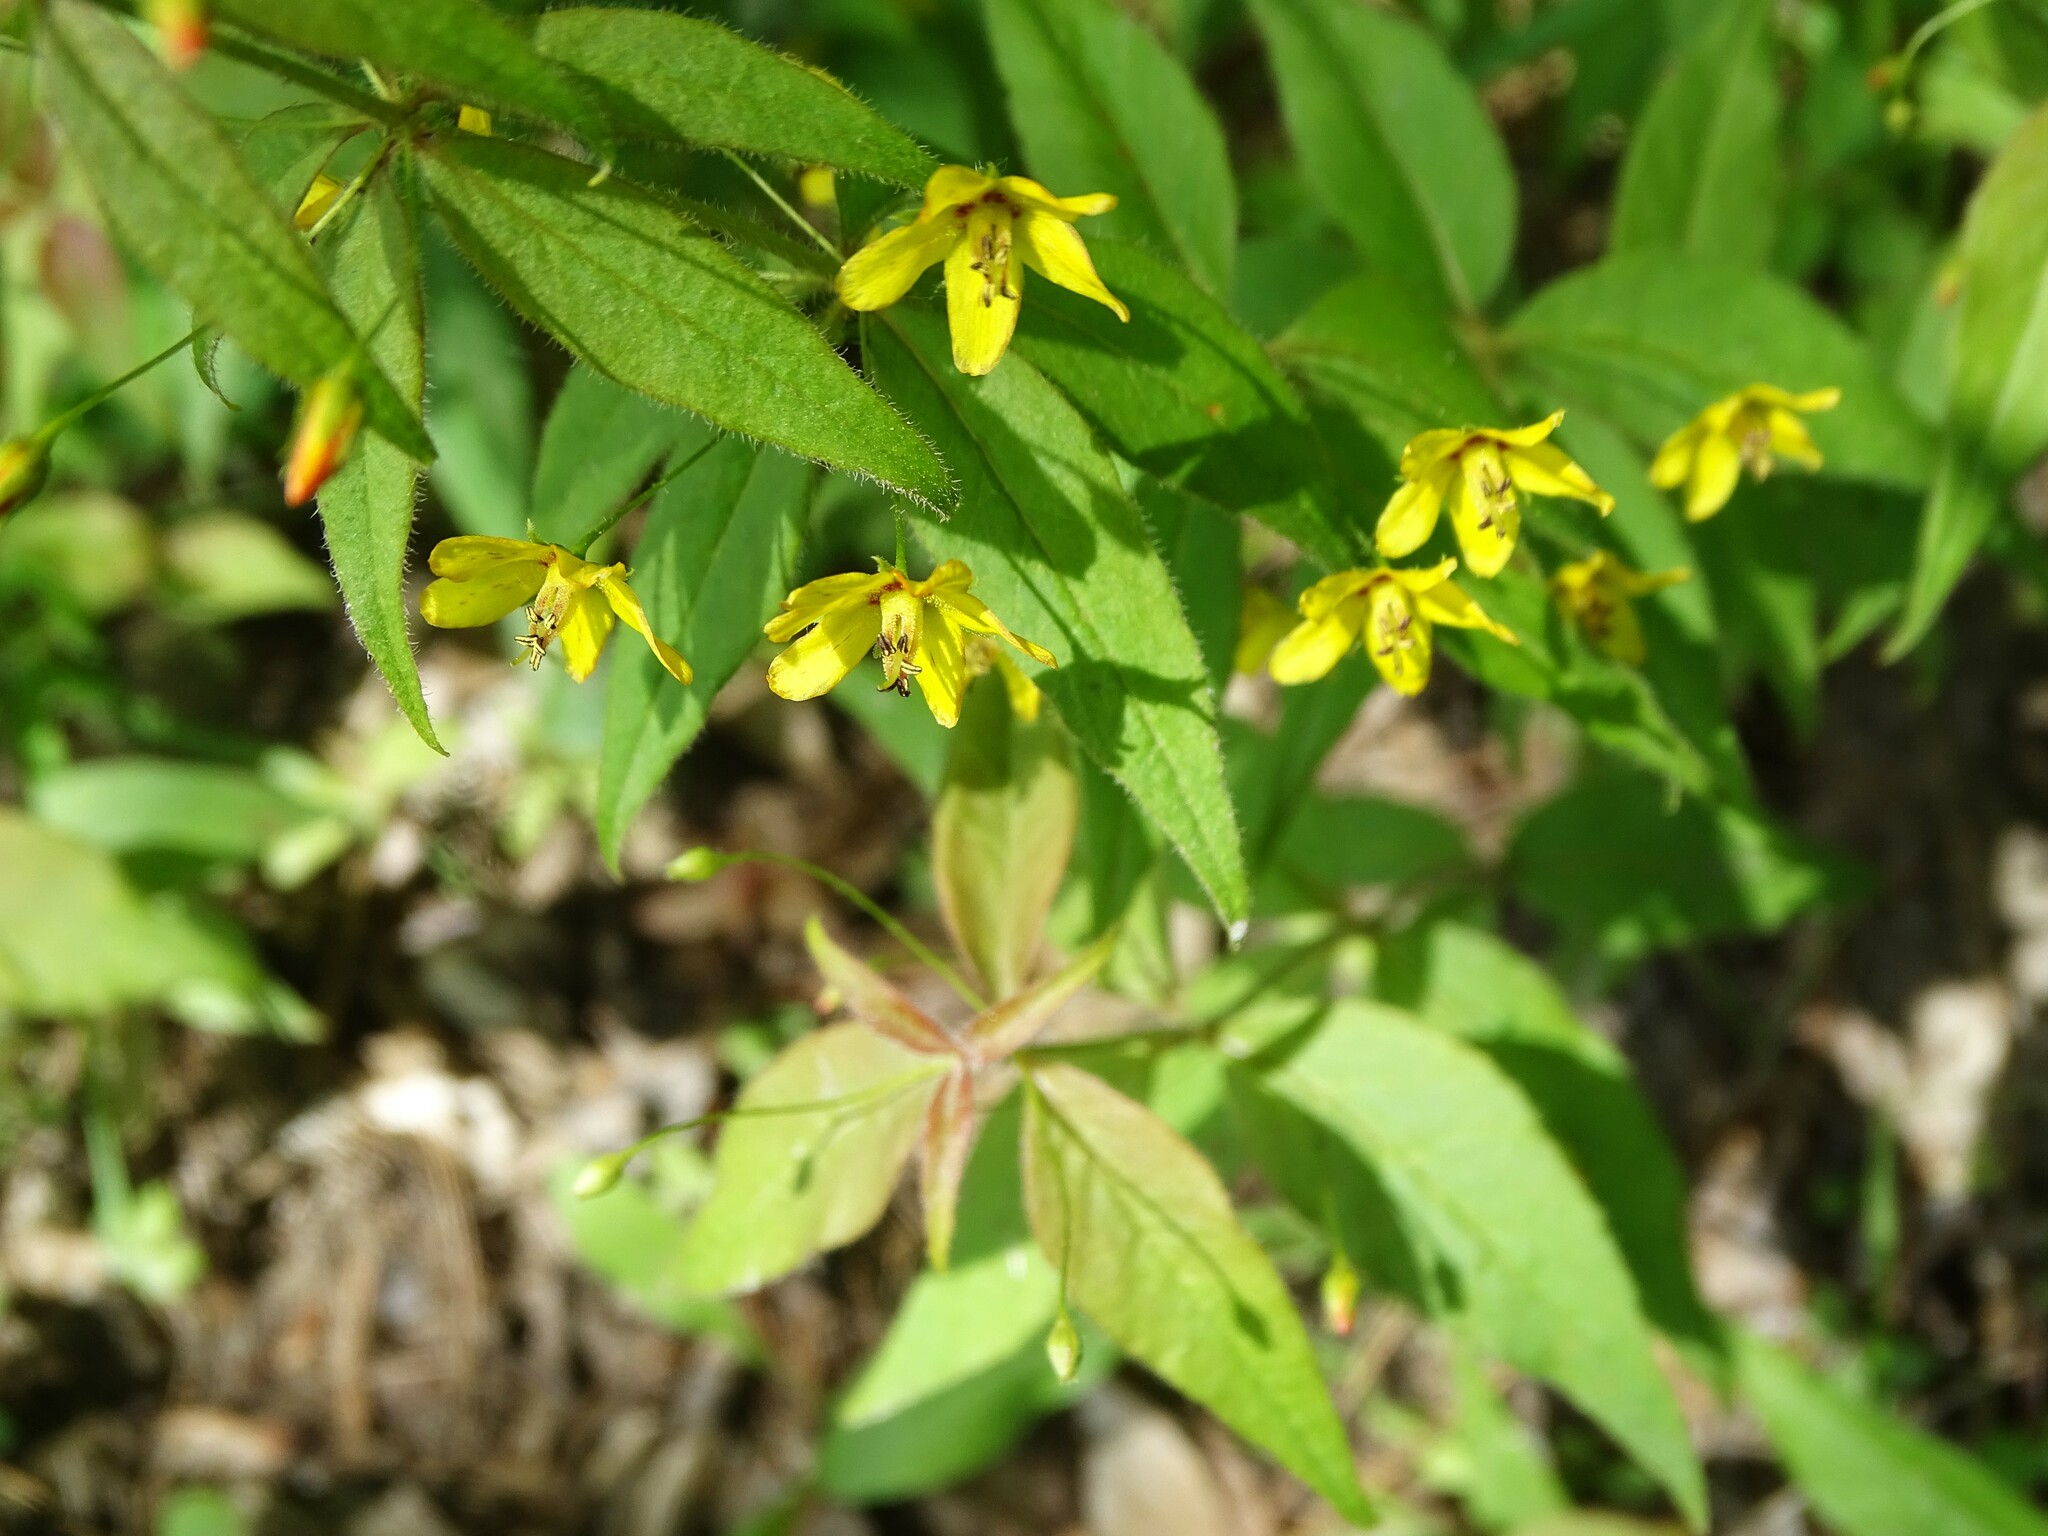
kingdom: Plantae
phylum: Tracheophyta
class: Magnoliopsida
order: Ericales
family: Primulaceae
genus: Lysimachia
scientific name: Lysimachia quadrifolia
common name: Whorled loosestrife
